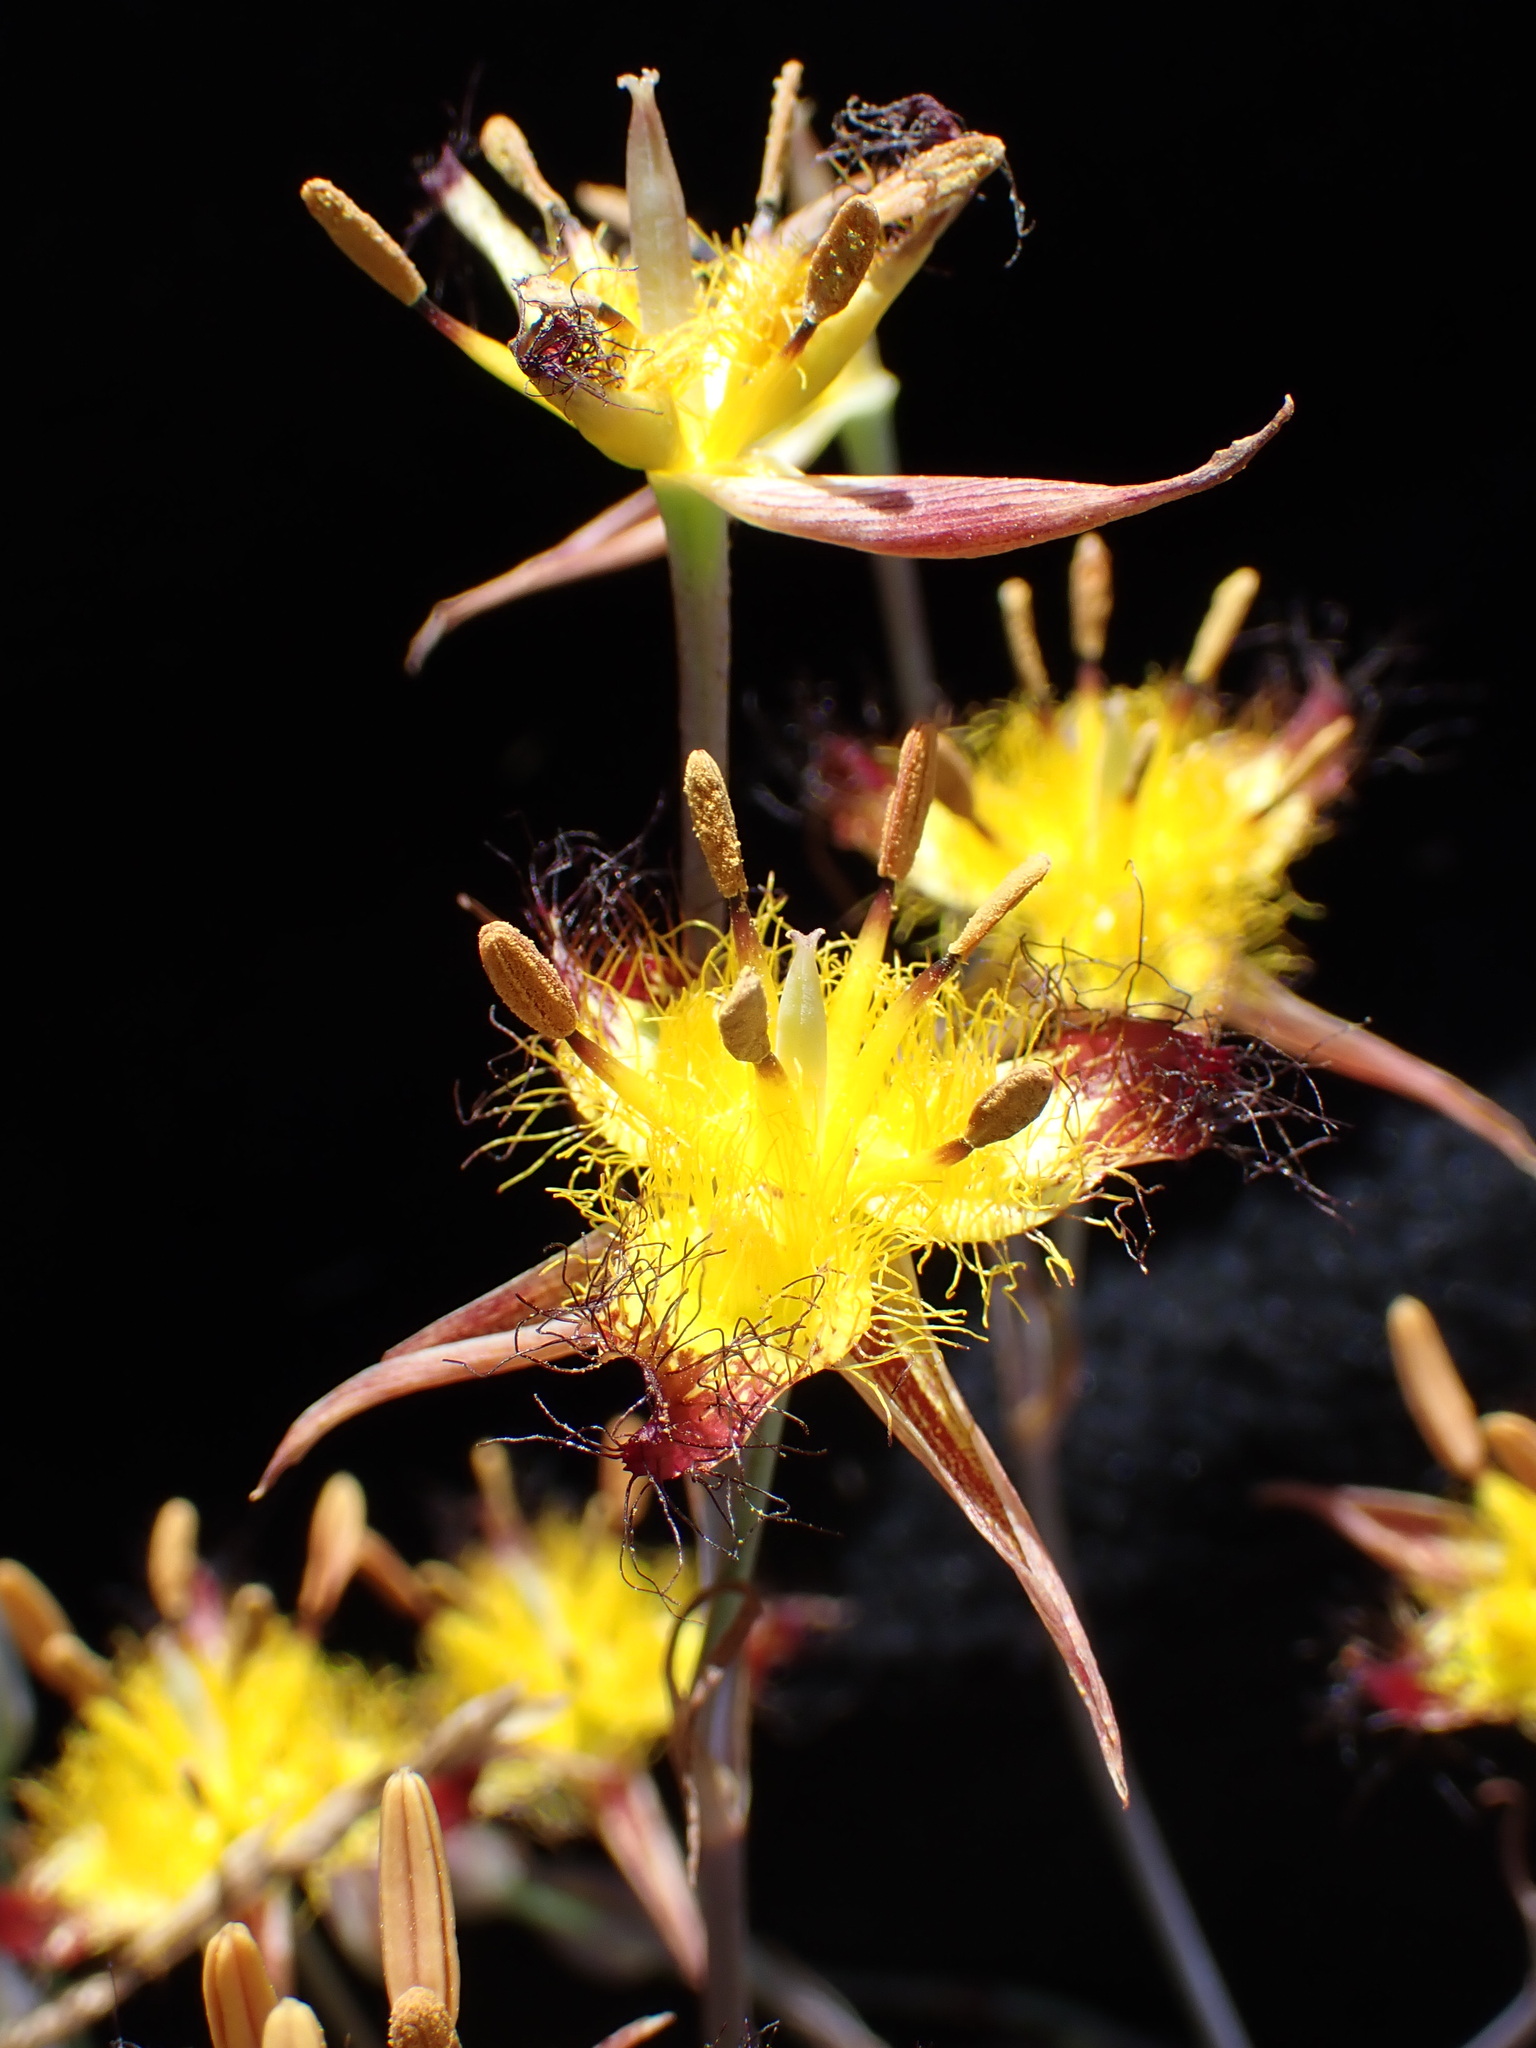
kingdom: Plantae
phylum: Tracheophyta
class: Liliopsida
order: Liliales
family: Liliaceae
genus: Calochortus
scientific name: Calochortus obispoensis
